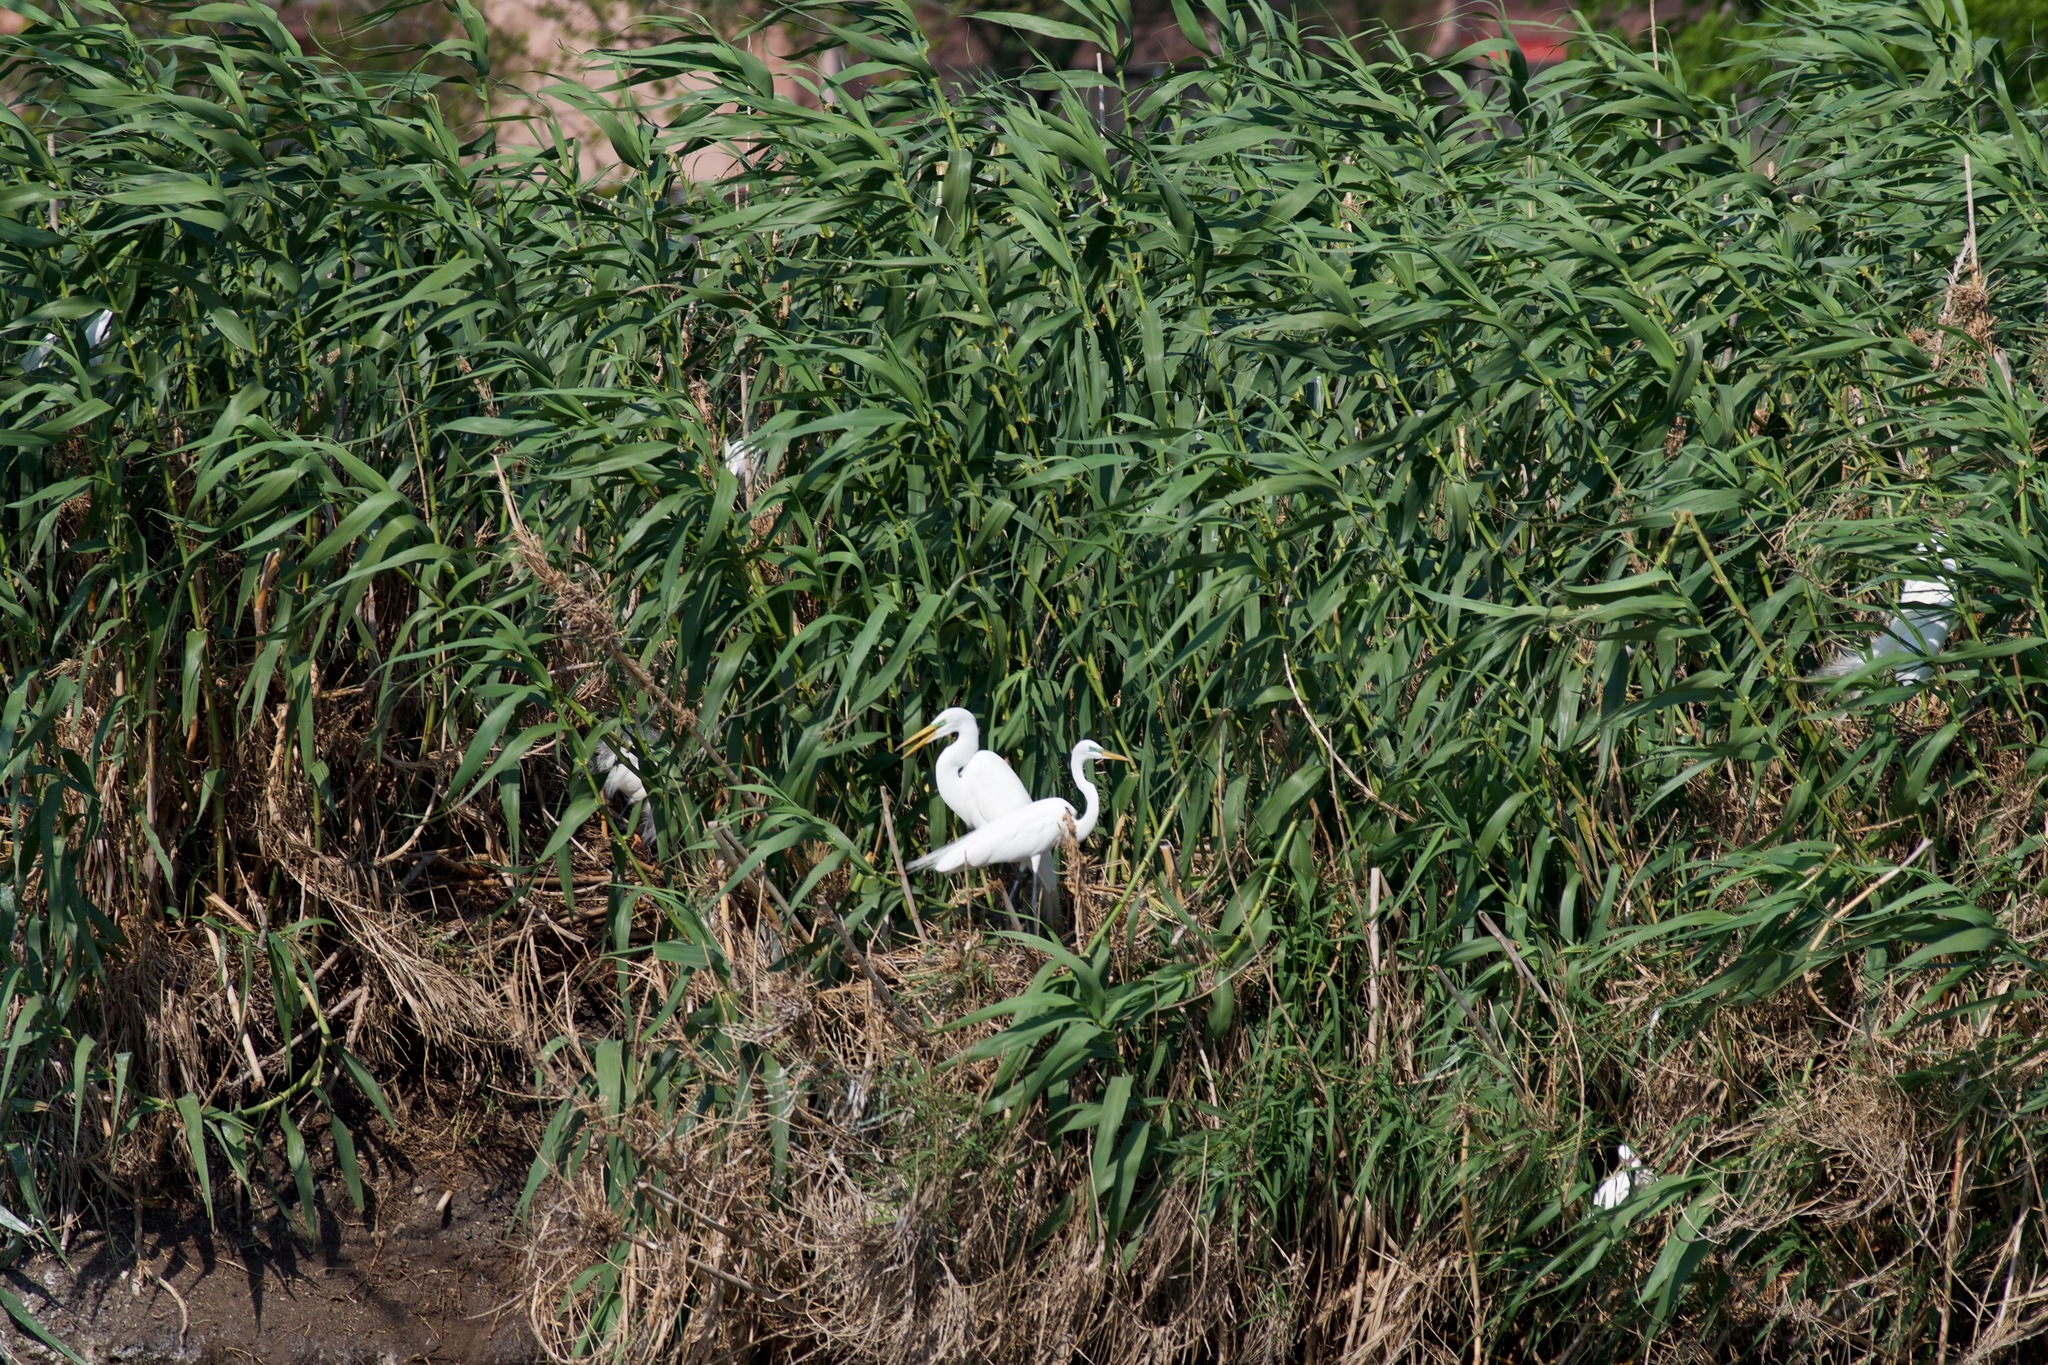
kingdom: Animalia
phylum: Chordata
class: Aves
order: Pelecaniformes
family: Ardeidae
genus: Ardea
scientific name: Ardea alba
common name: Great egret
